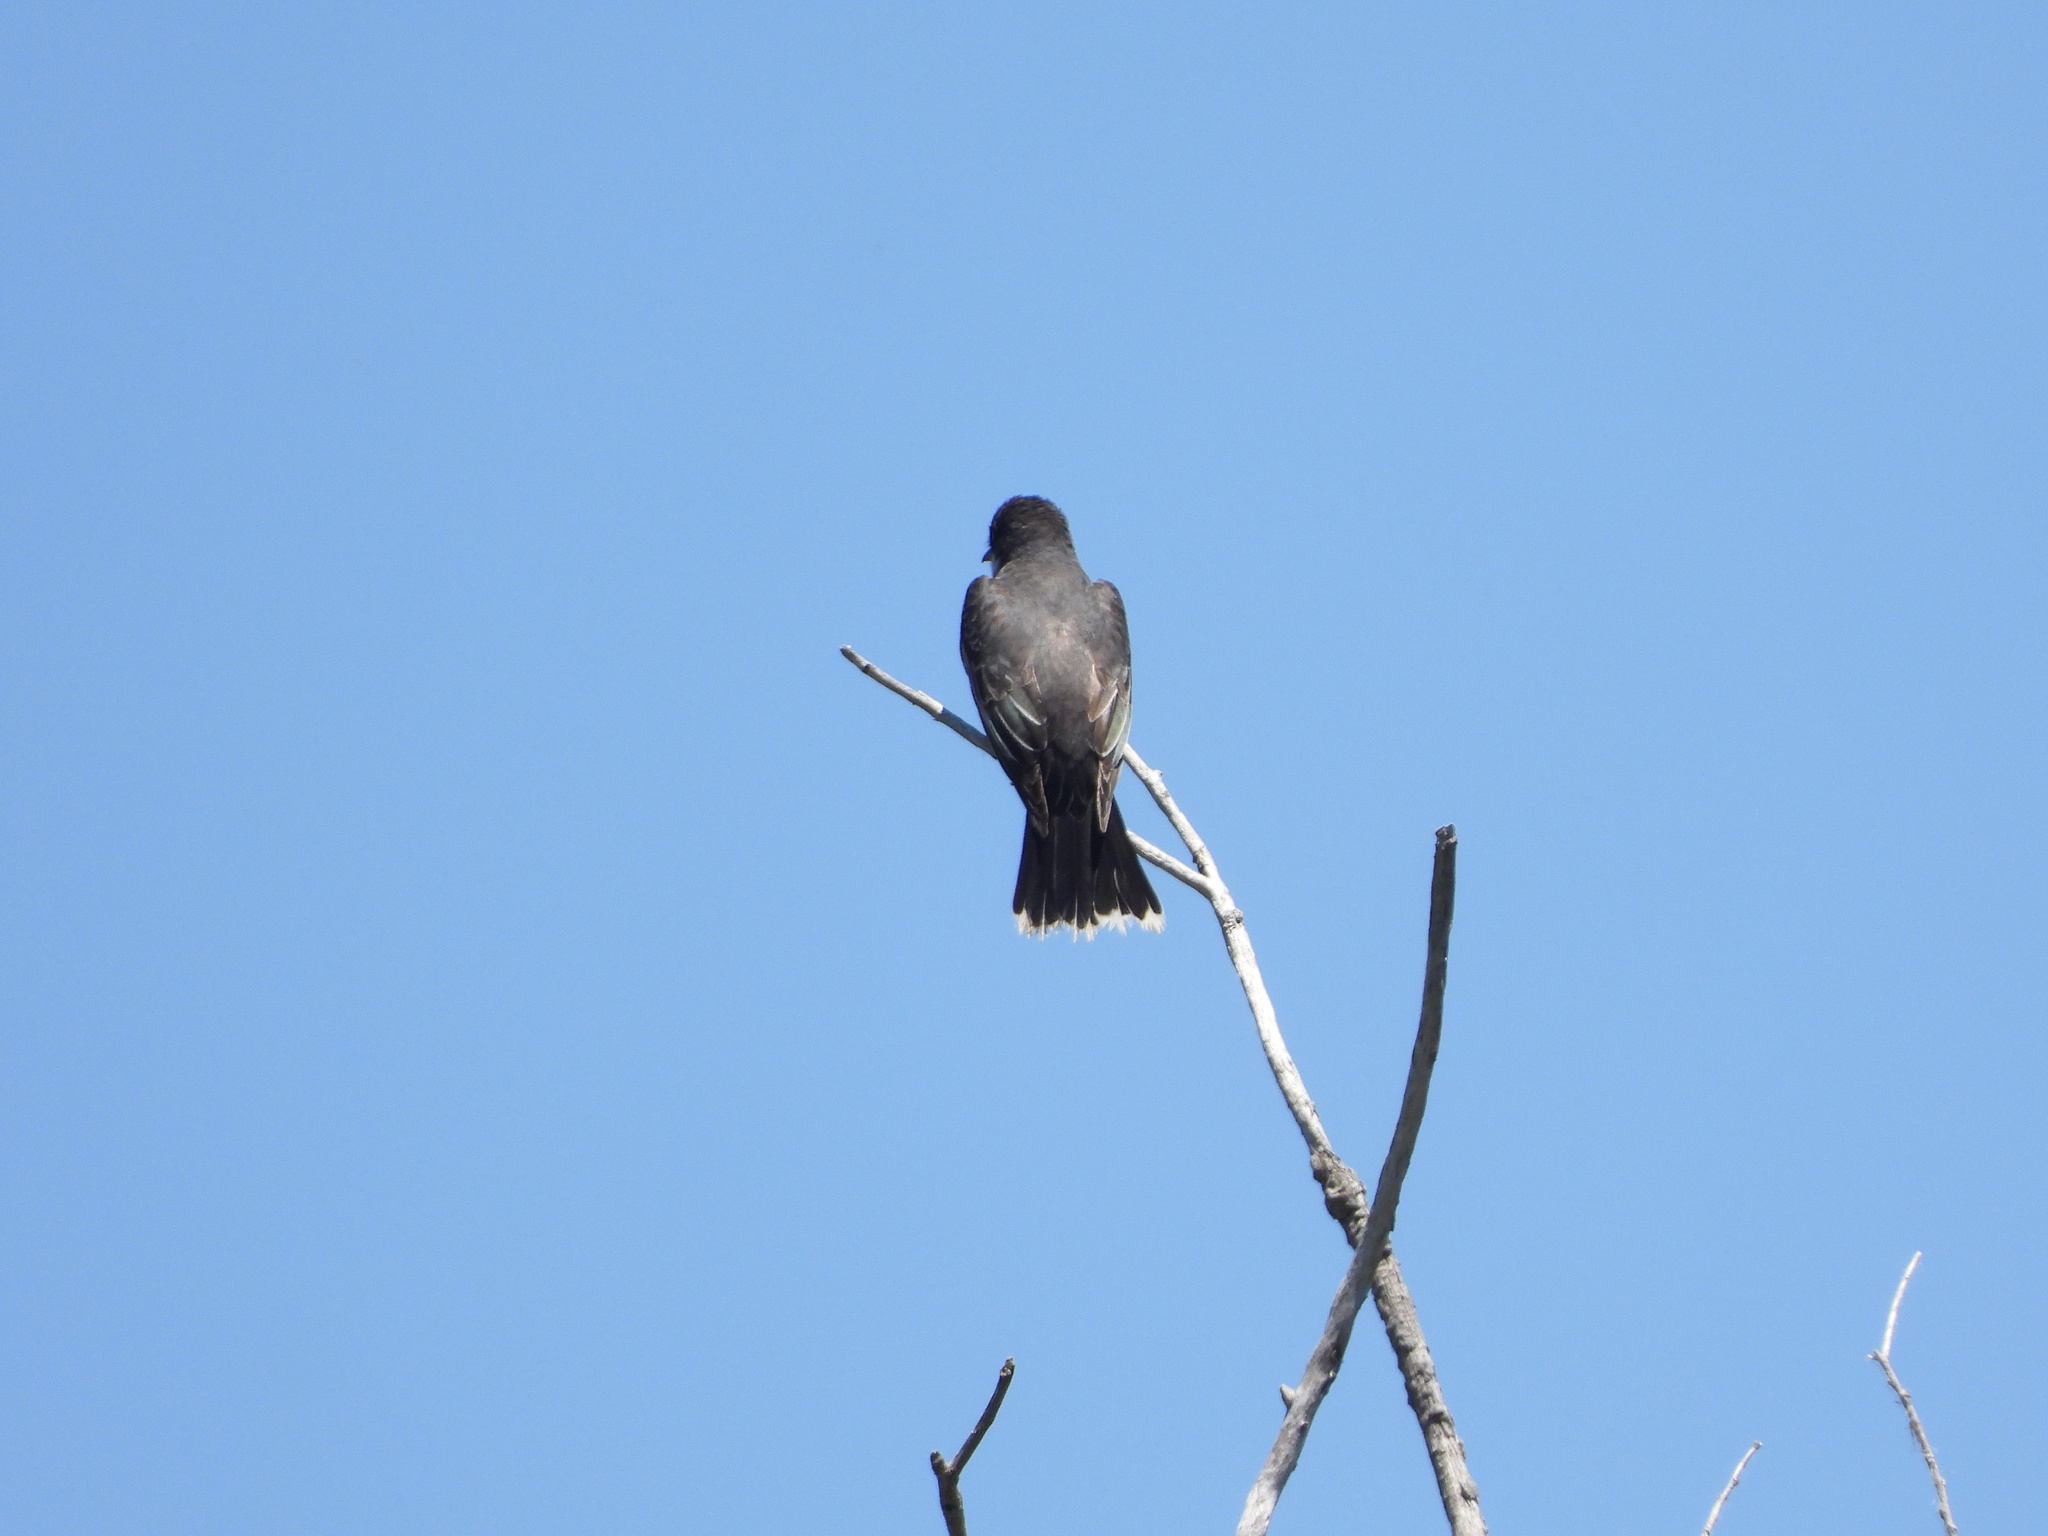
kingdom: Animalia
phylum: Chordata
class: Aves
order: Passeriformes
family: Tyrannidae
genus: Tyrannus
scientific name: Tyrannus tyrannus
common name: Eastern kingbird
